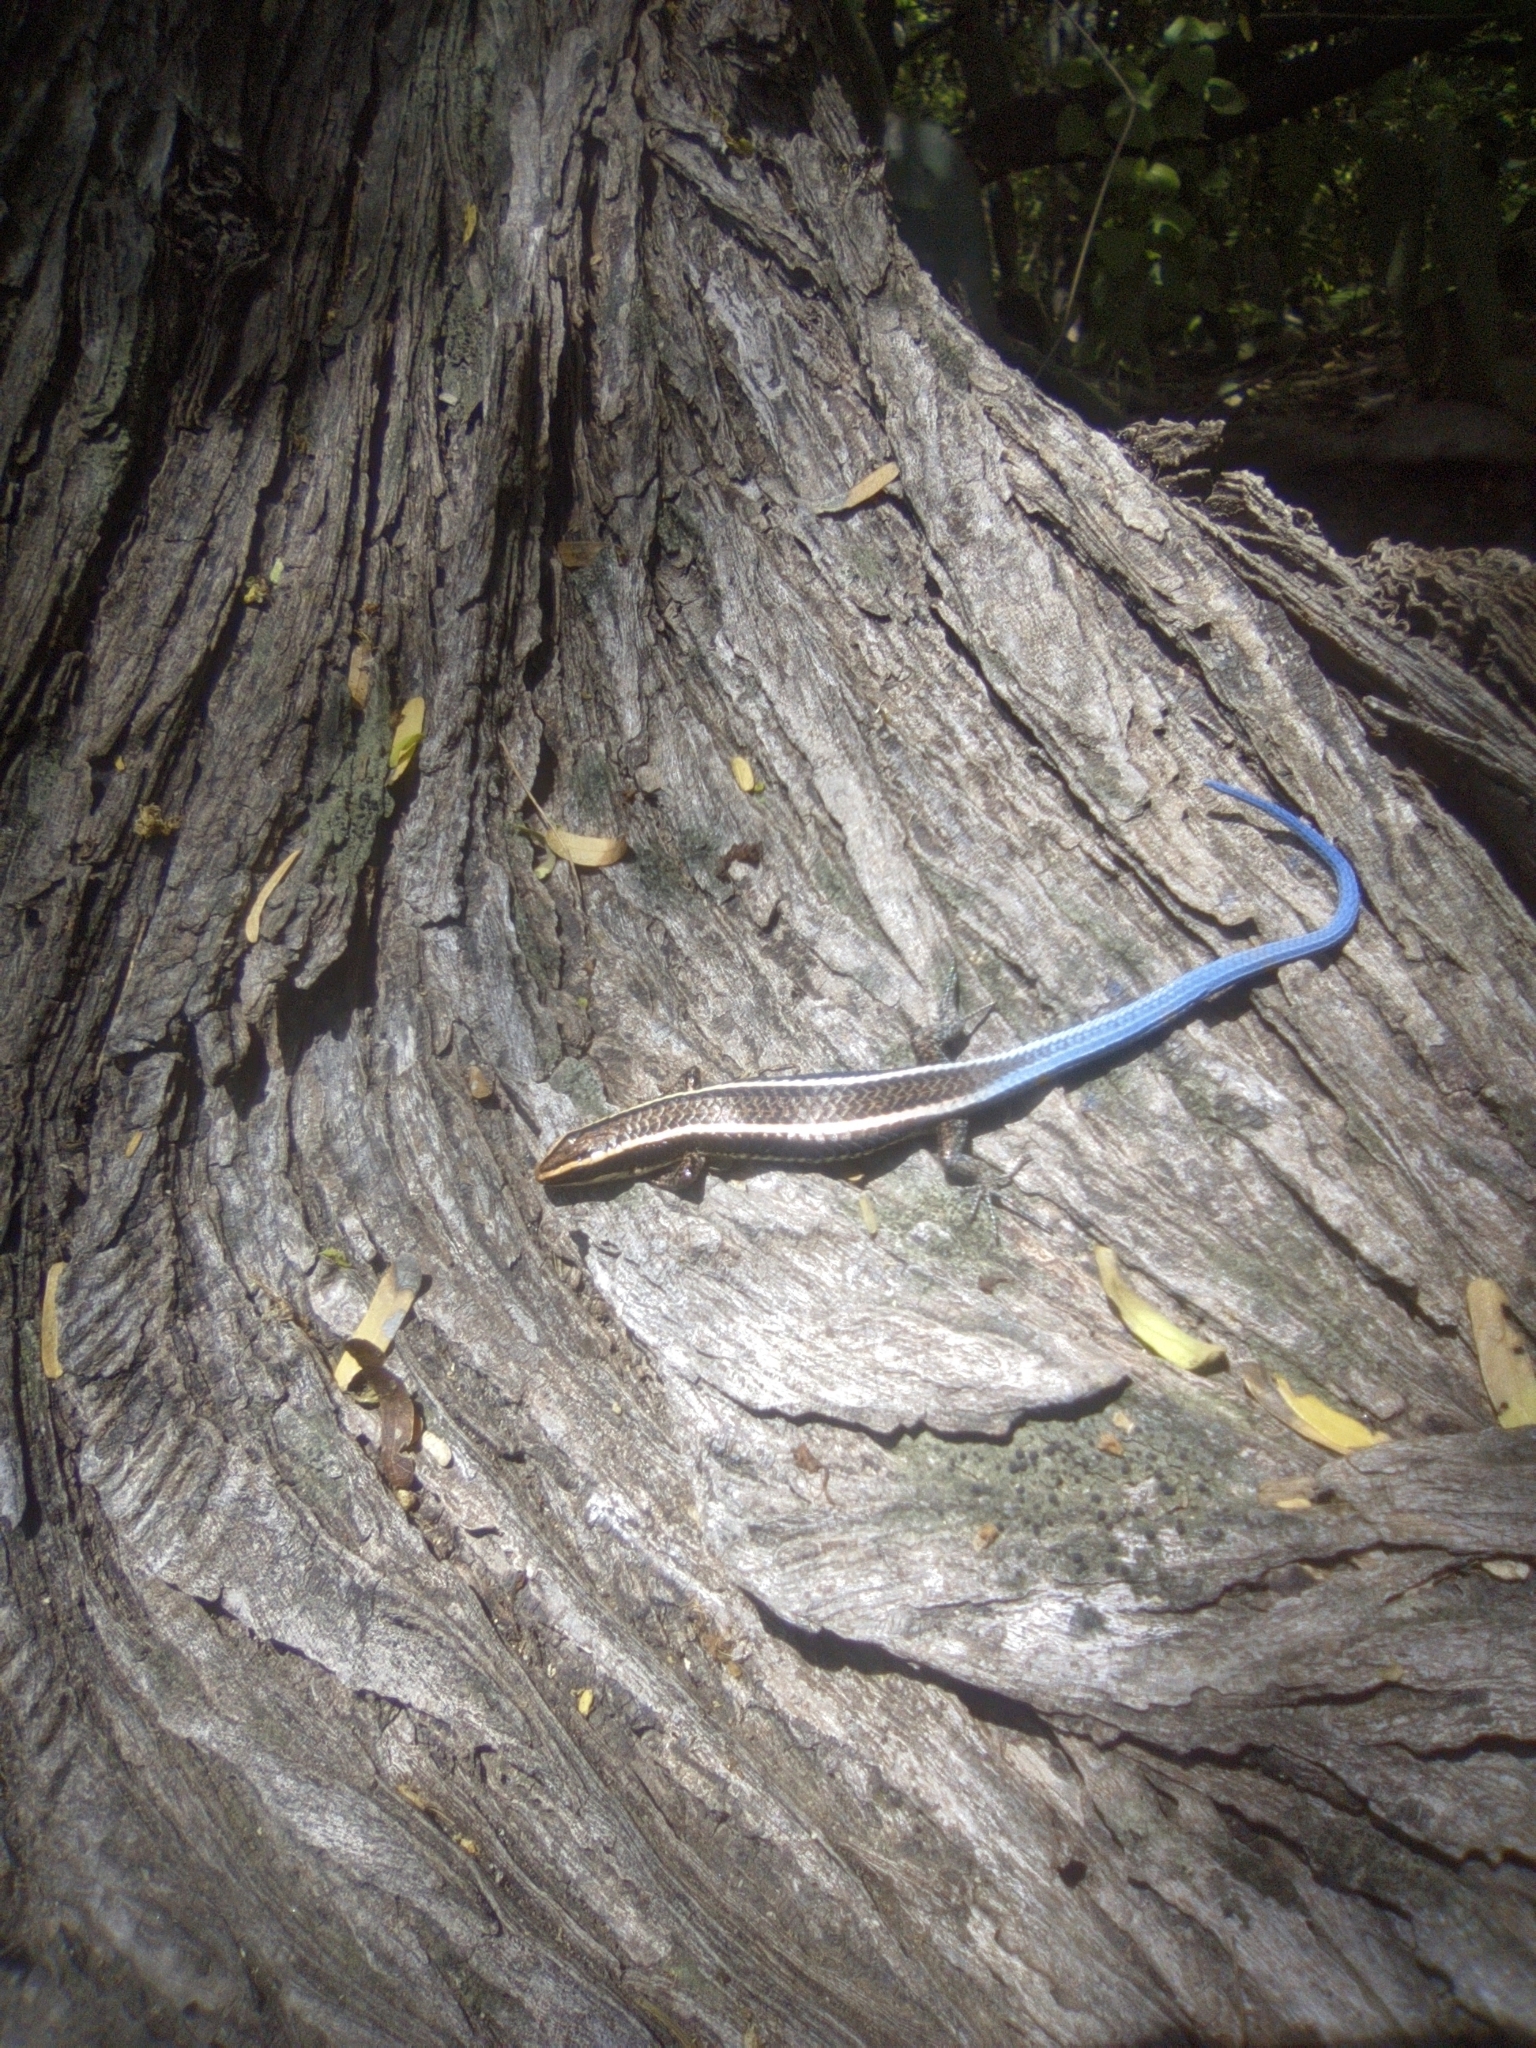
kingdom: Animalia
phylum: Chordata
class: Squamata
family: Gymnophthalmidae
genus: Tretioscincus
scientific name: Tretioscincus bifasciatus
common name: Rio magdalena tegu
